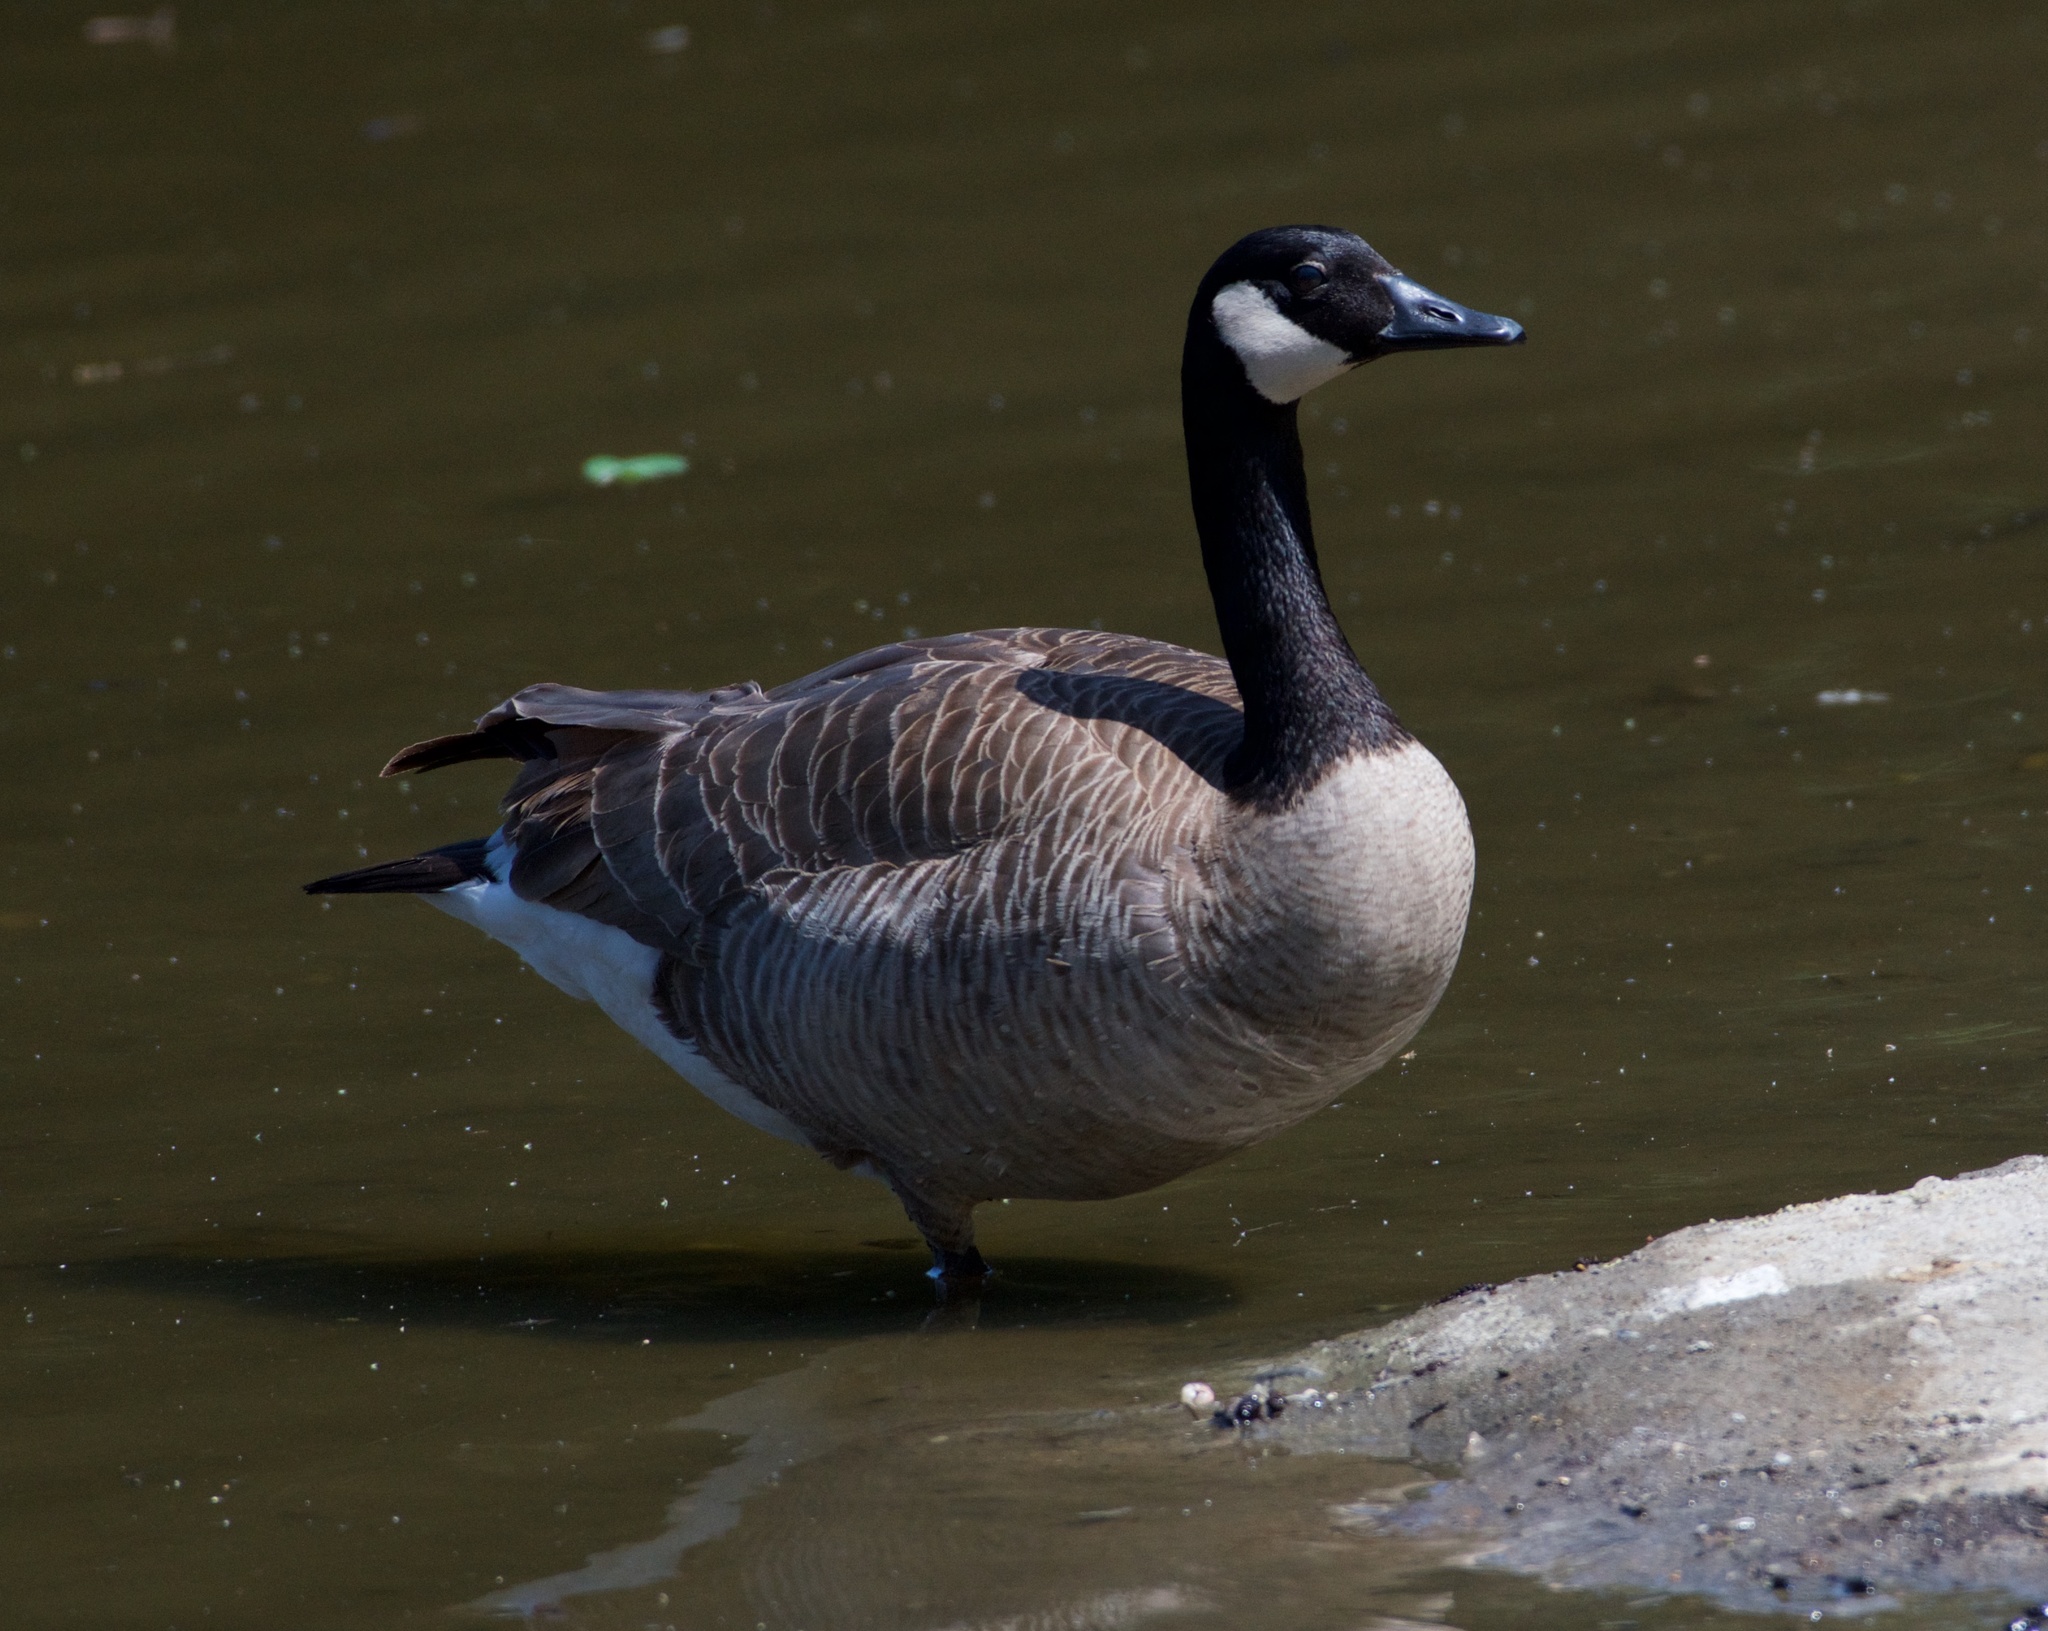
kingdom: Animalia
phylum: Chordata
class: Aves
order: Anseriformes
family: Anatidae
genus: Branta
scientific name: Branta canadensis
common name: Canada goose
